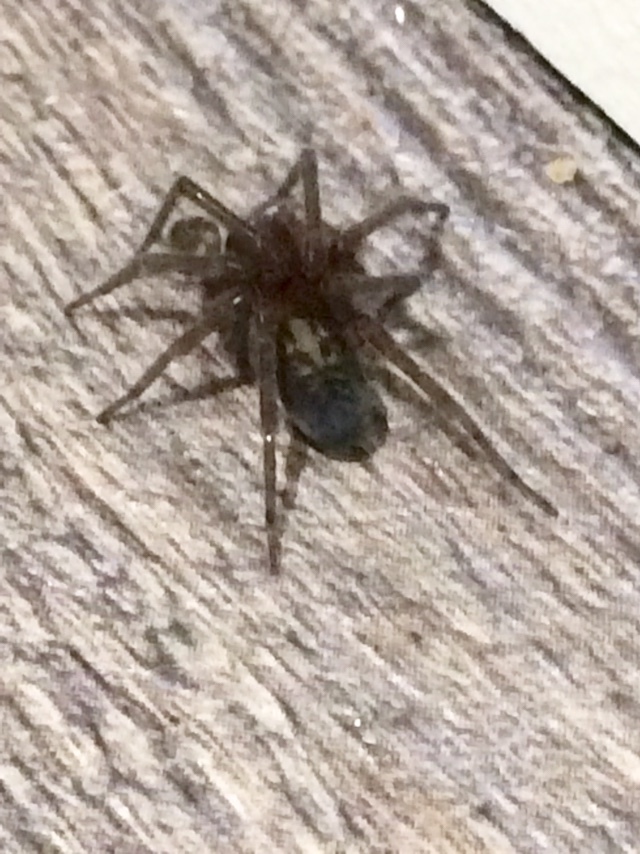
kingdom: Animalia
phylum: Arthropoda
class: Arachnida
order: Araneae
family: Amaurobiidae
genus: Amaurobius
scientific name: Amaurobius ferox
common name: Black laceweaver
